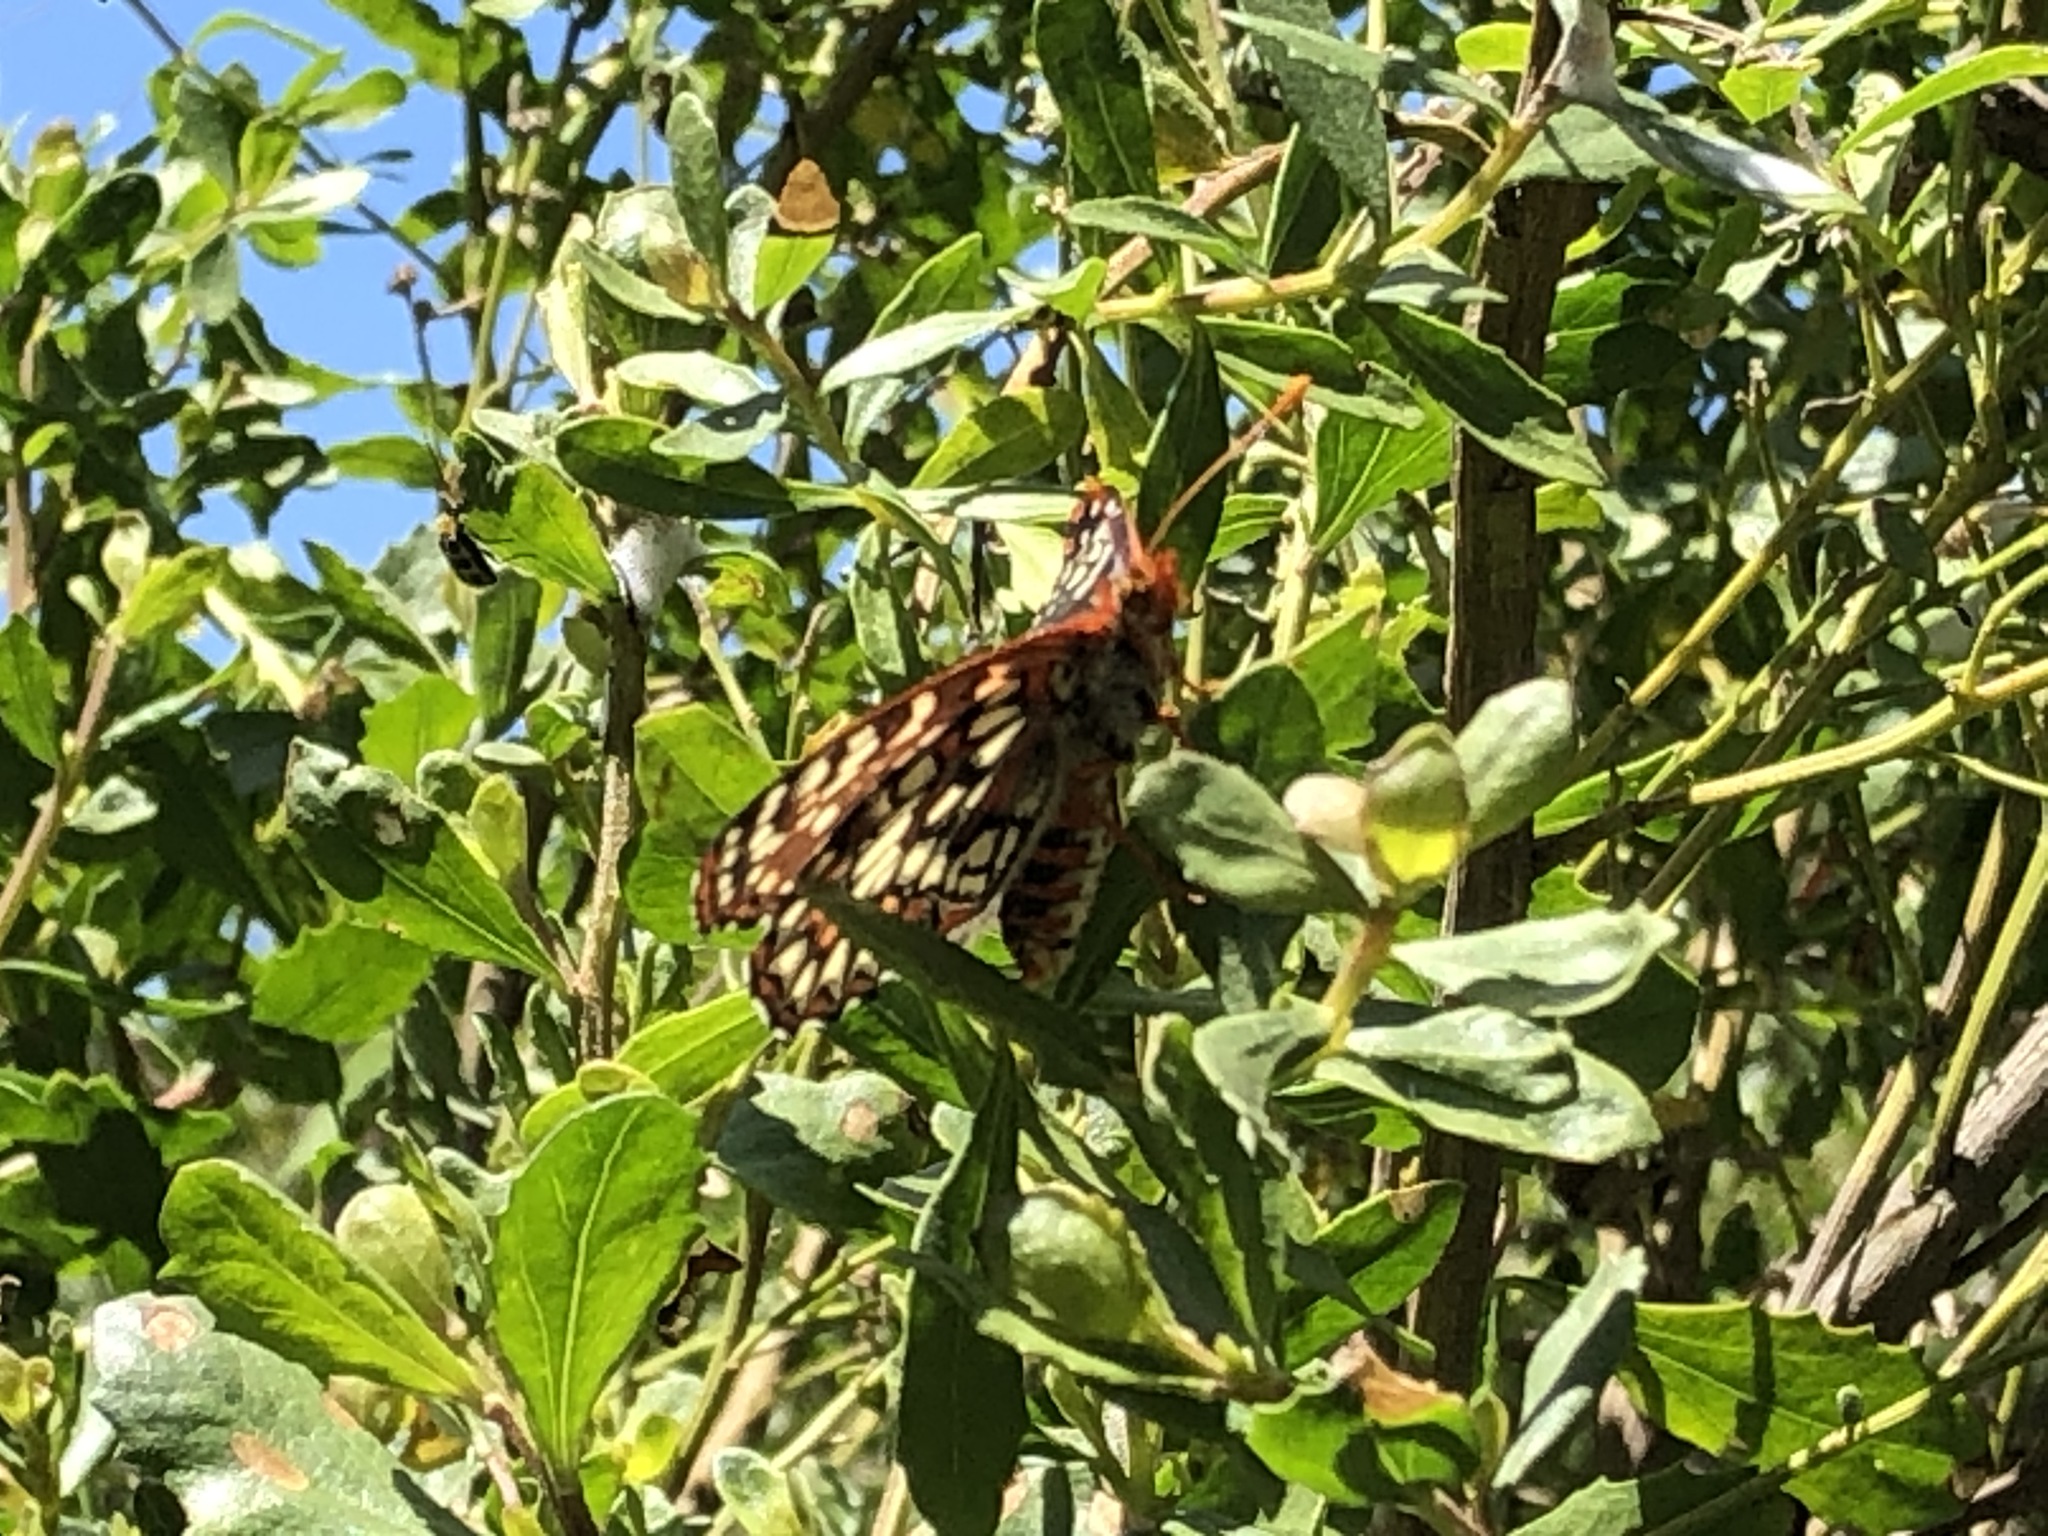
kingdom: Animalia
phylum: Arthropoda
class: Insecta
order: Lepidoptera
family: Nymphalidae
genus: Occidryas
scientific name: Occidryas chalcedona
